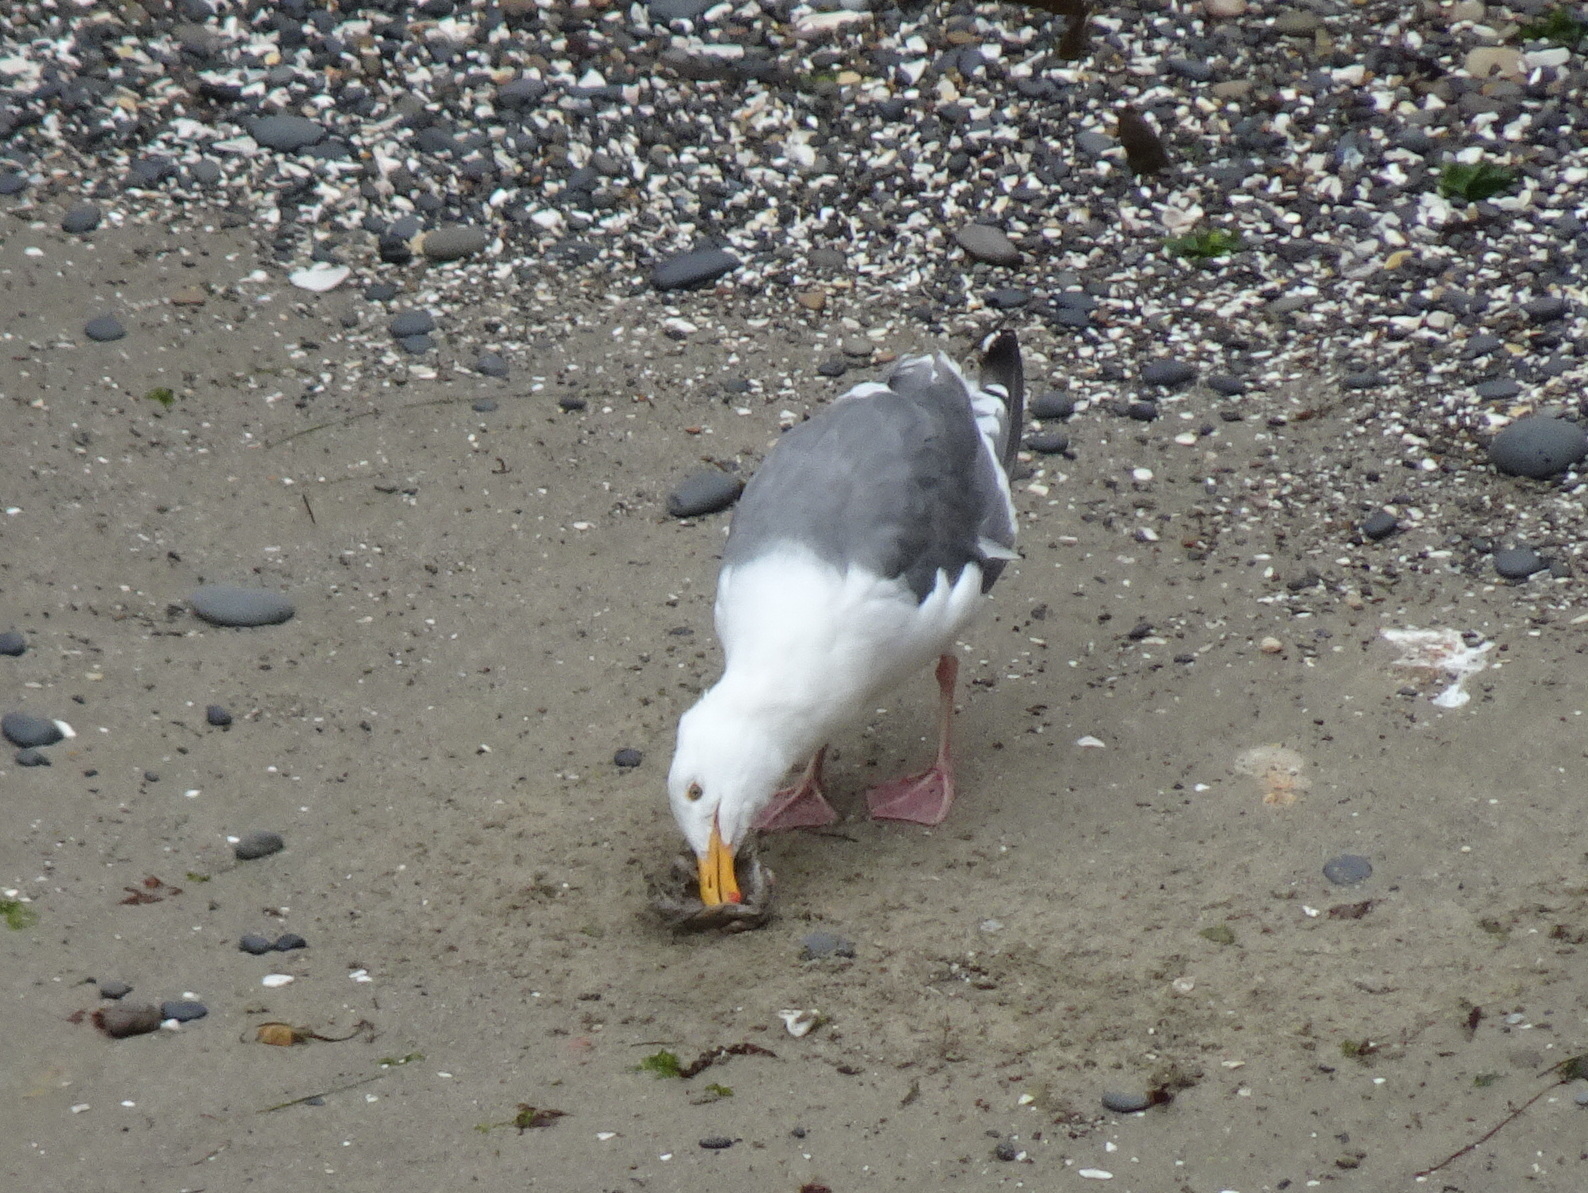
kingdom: Animalia
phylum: Chordata
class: Aves
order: Charadriiformes
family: Laridae
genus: Larus
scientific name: Larus occidentalis
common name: Western gull
